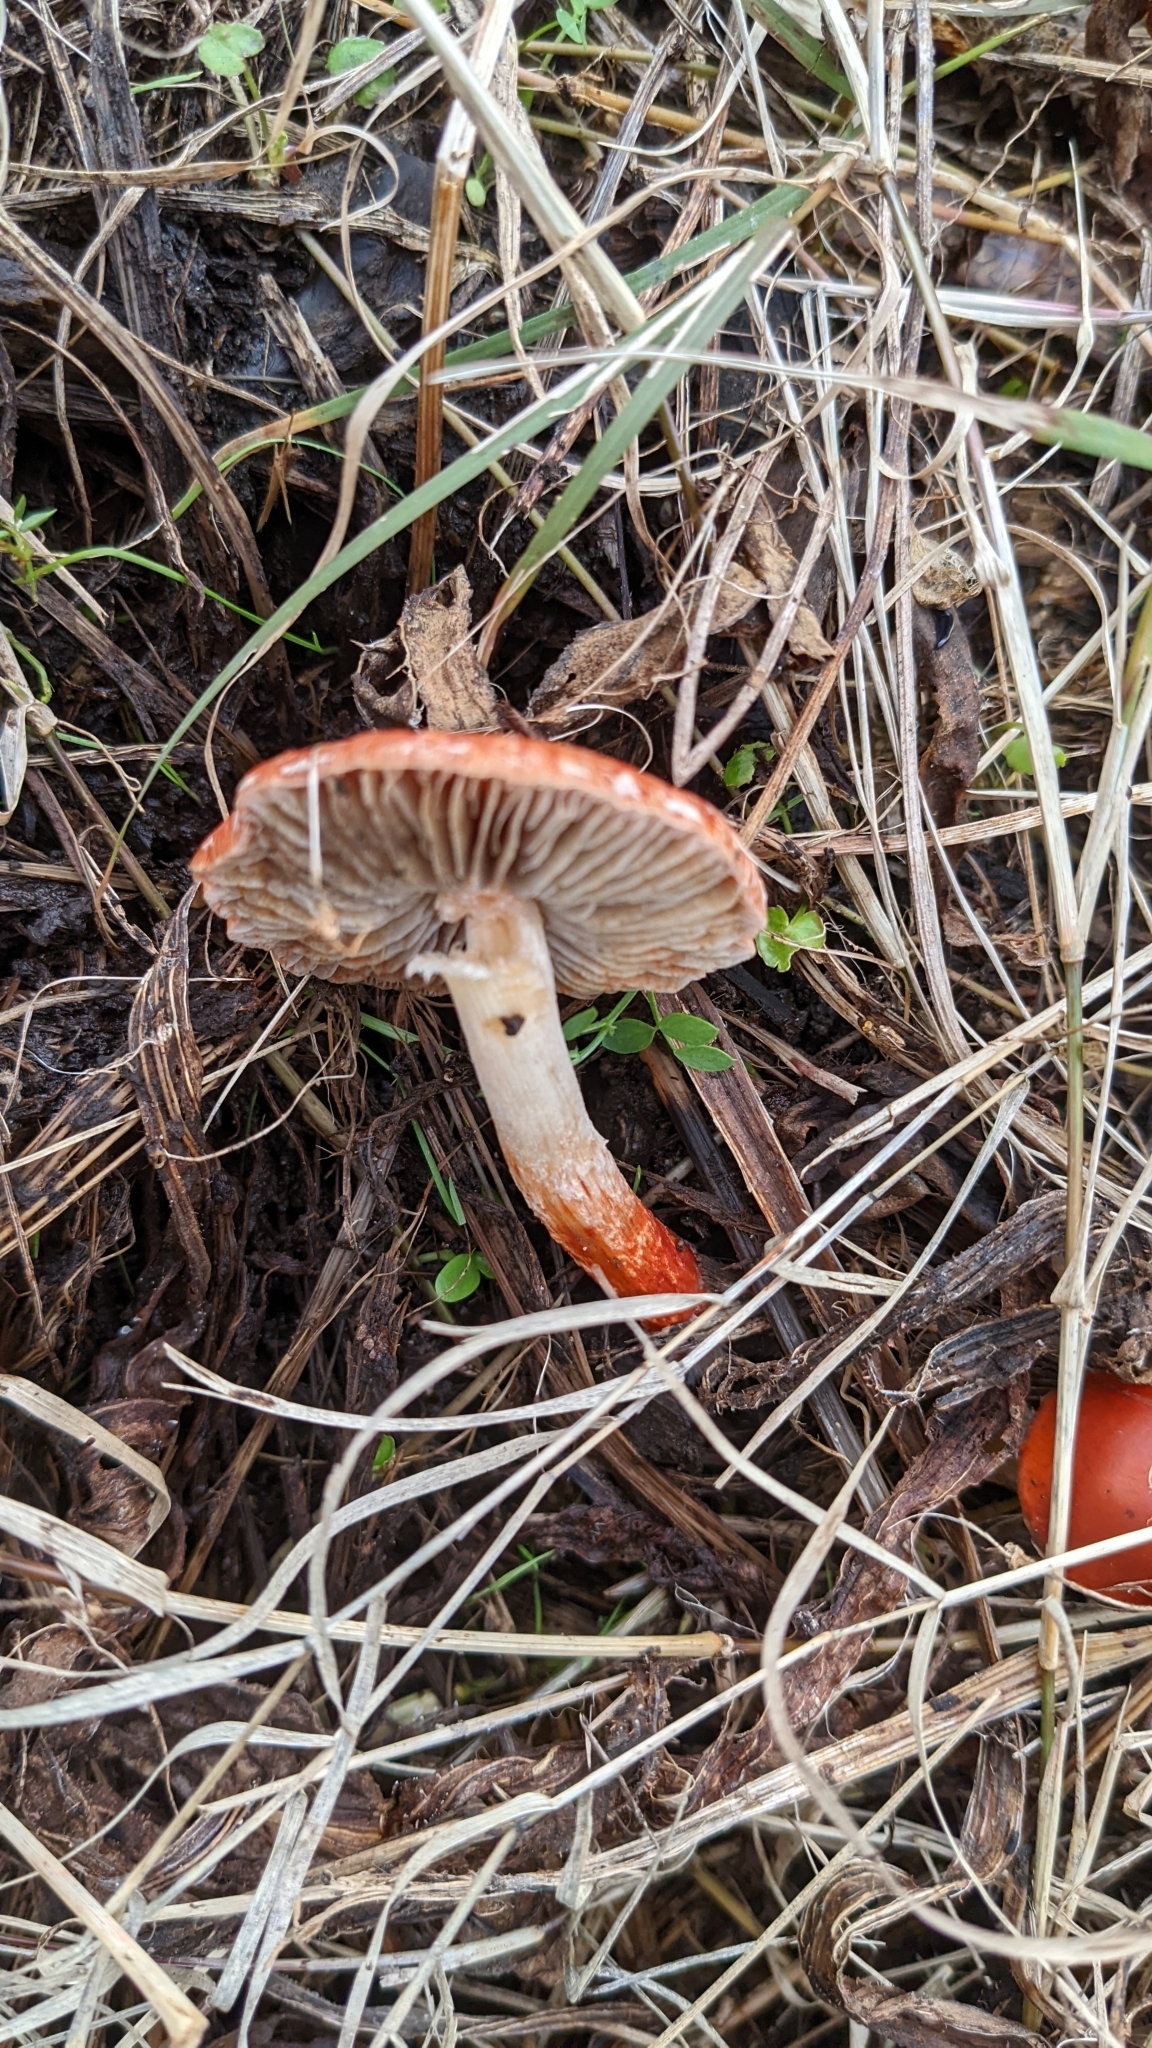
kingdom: Fungi
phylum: Basidiomycota
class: Agaricomycetes
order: Agaricales
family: Strophariaceae
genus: Leratiomyces
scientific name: Leratiomyces ceres
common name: Redlead roundhead
